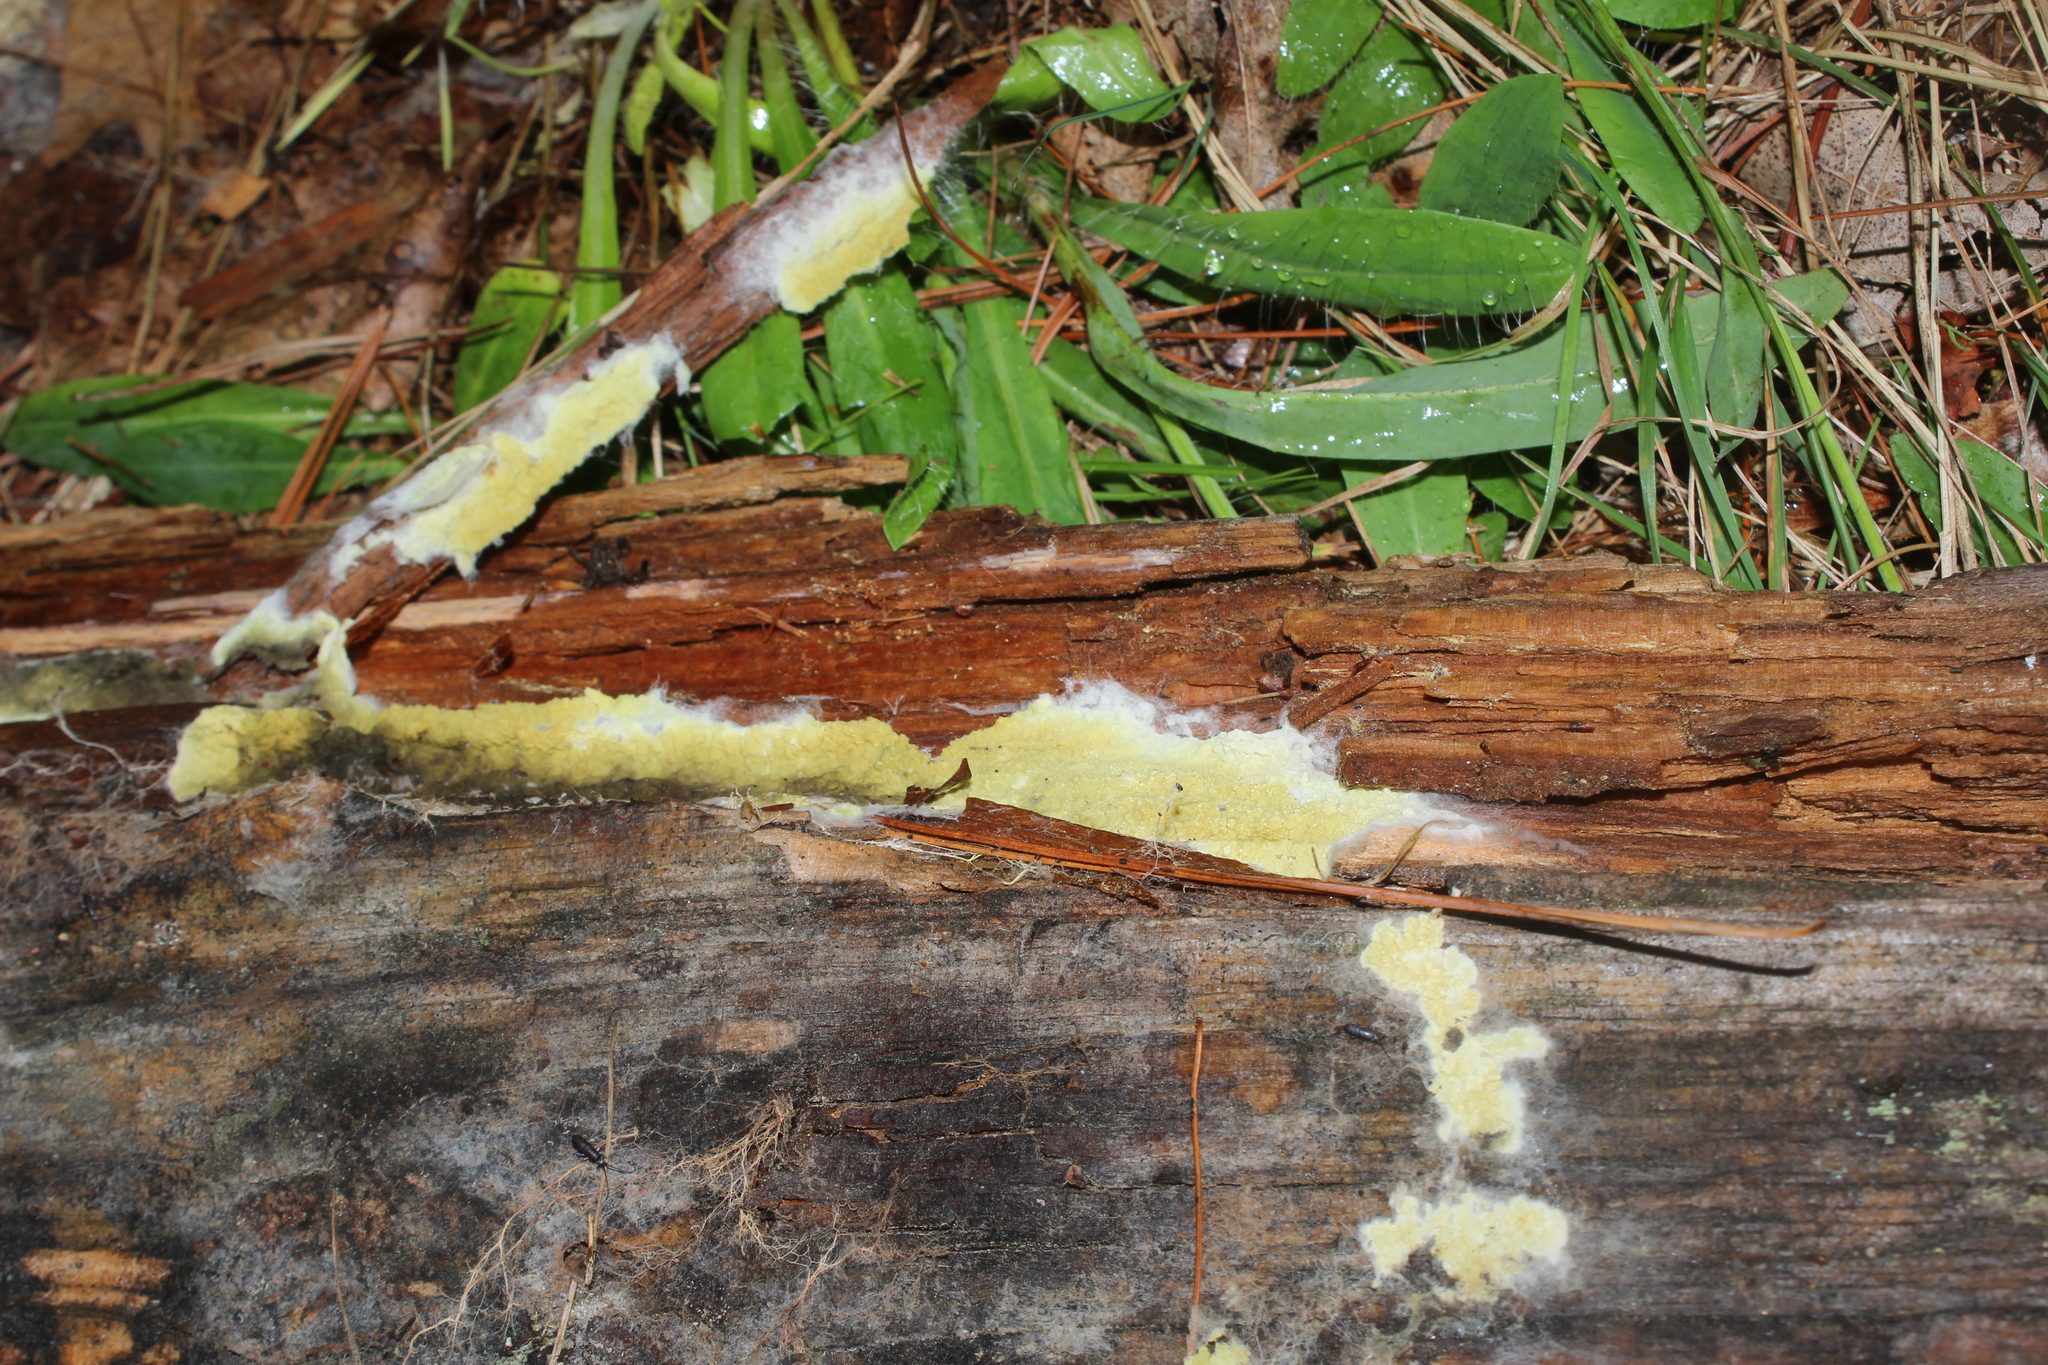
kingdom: Fungi
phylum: Basidiomycota
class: Agaricomycetes
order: Boletales
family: Coniophoraceae
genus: Penttilamyces
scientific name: Penttilamyces olivascens
